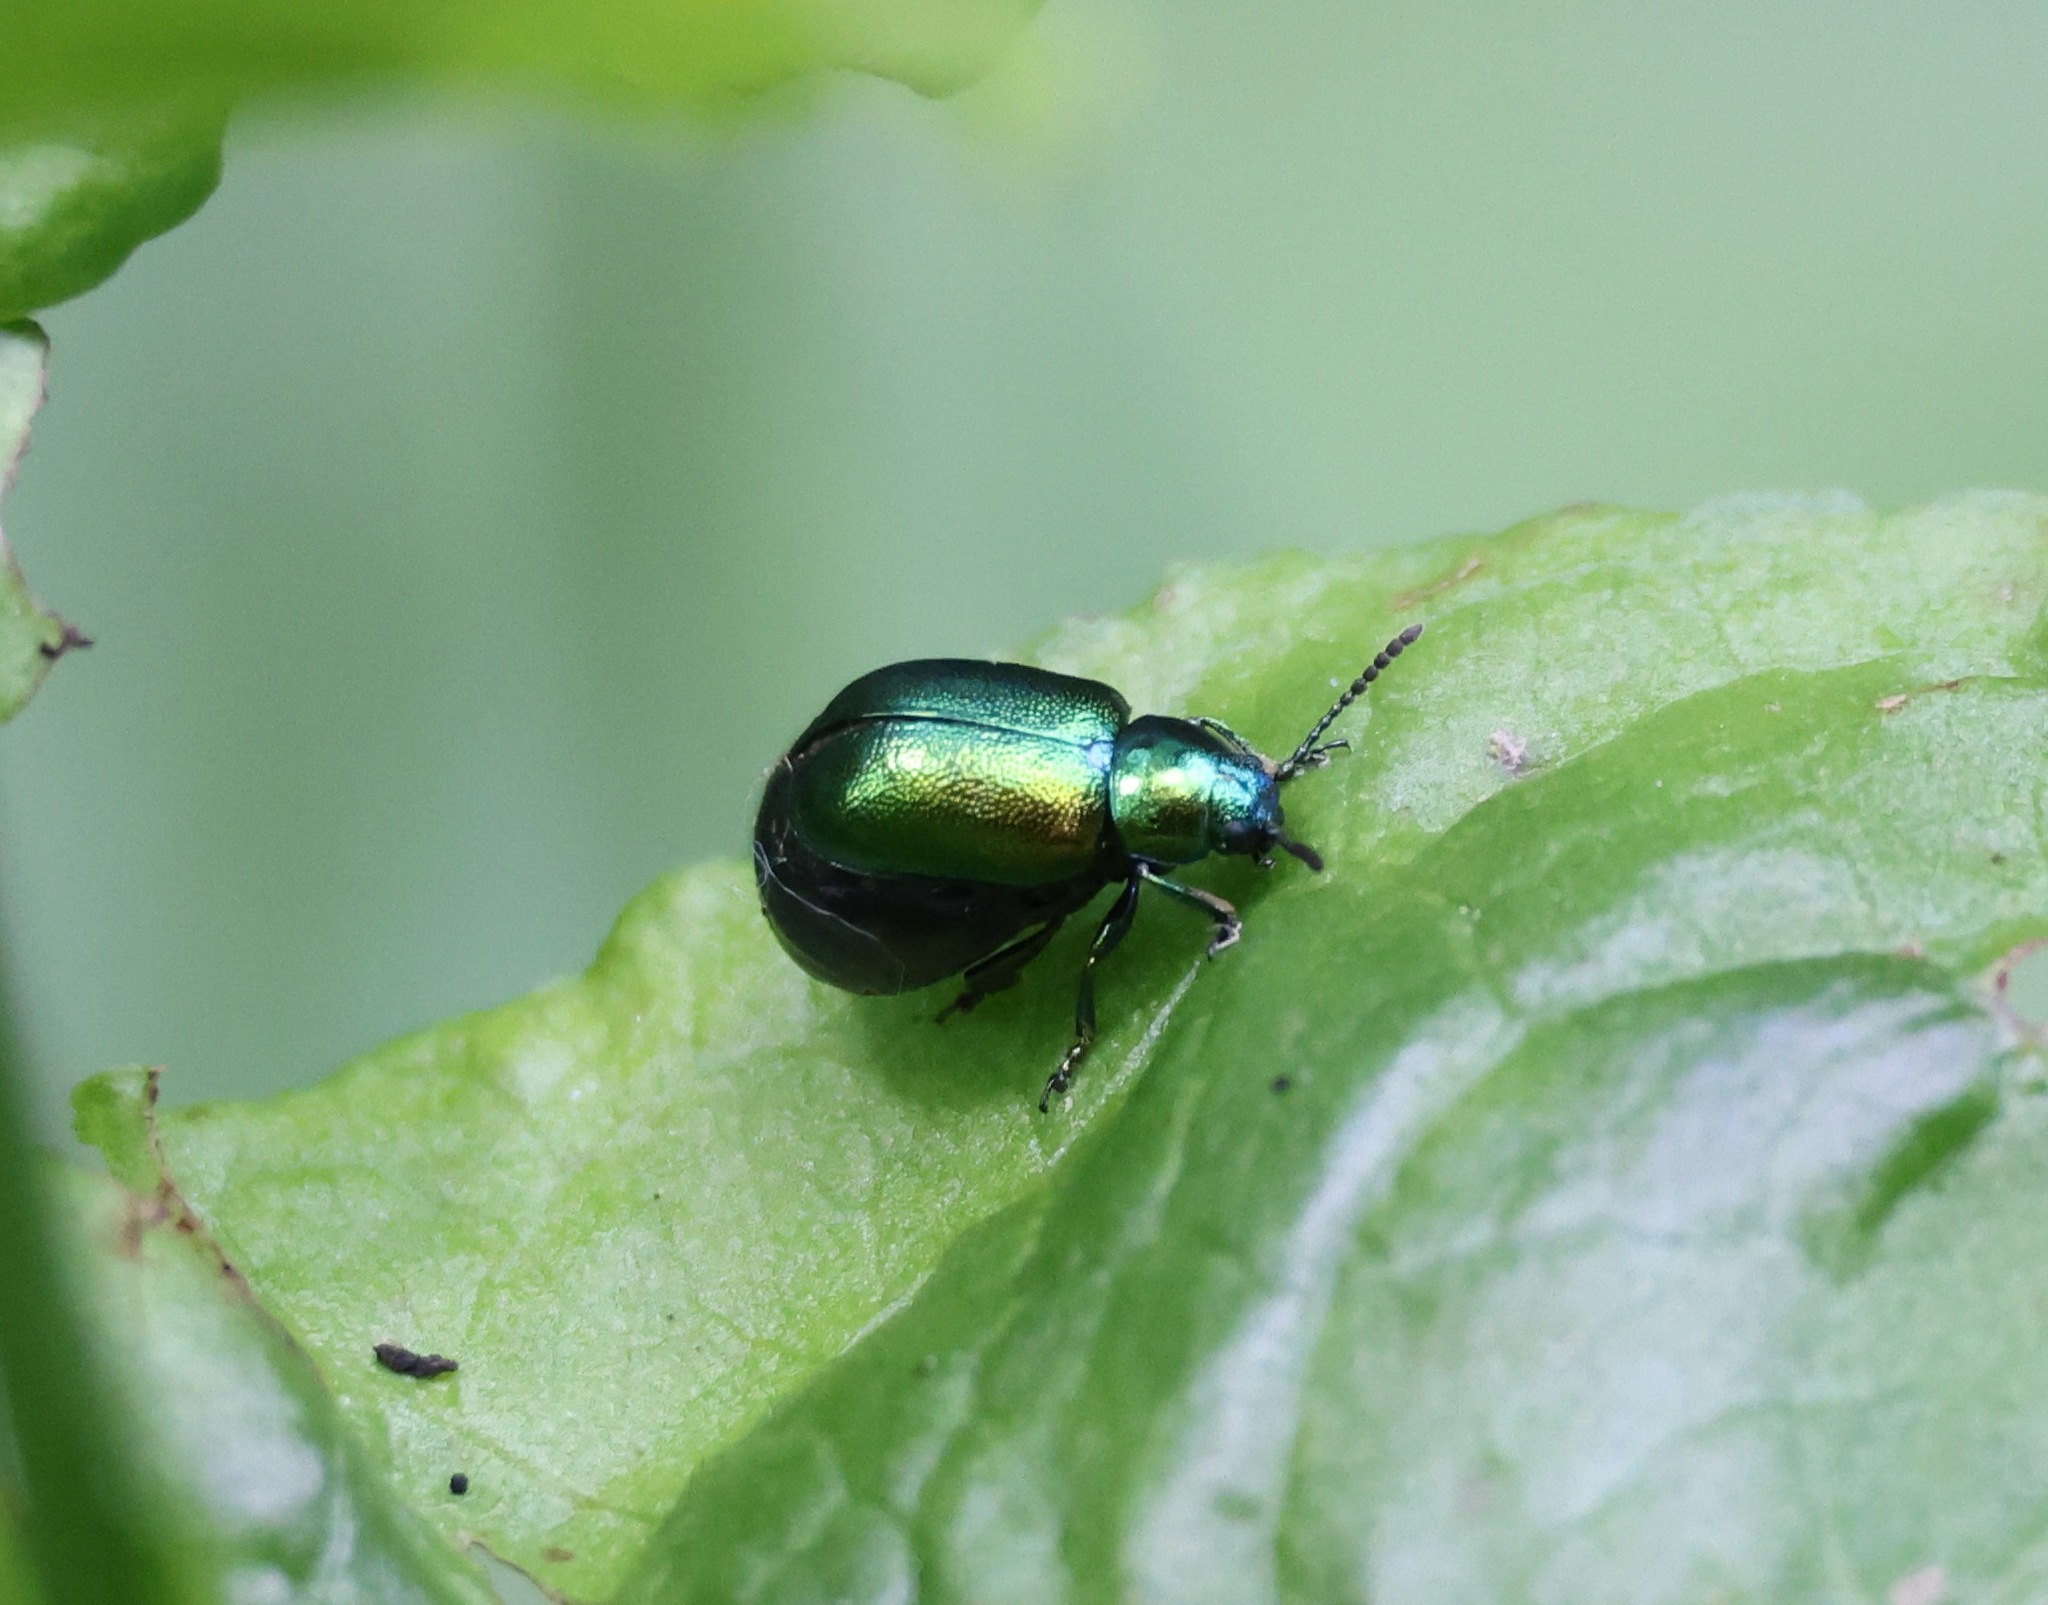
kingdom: Animalia
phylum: Arthropoda
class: Insecta
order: Coleoptera
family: Chrysomelidae
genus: Gastrophysa
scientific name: Gastrophysa viridula
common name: Green dock beetle
